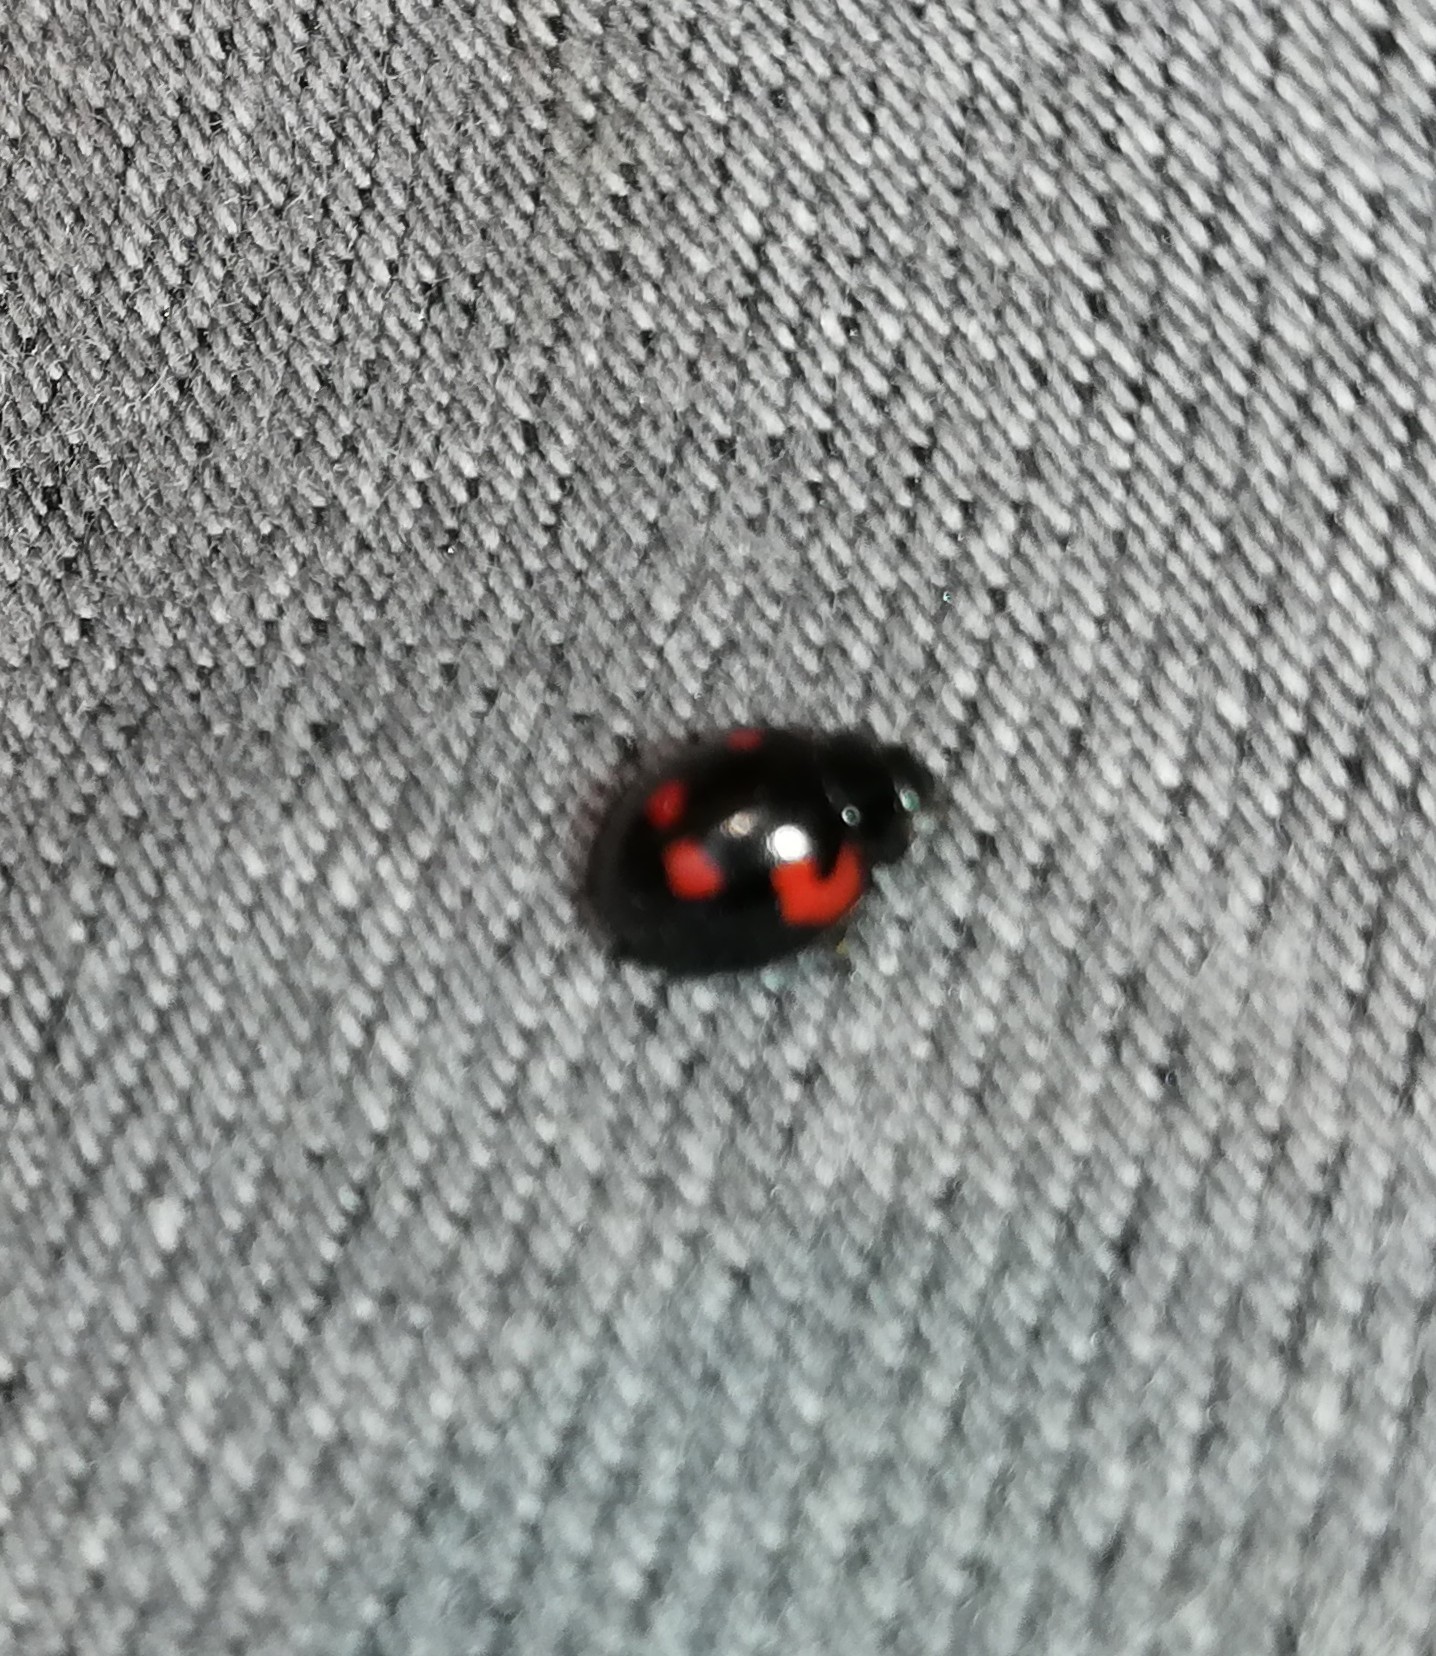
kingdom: Animalia
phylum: Arthropoda
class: Insecta
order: Coleoptera
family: Coccinellidae
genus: Brumus
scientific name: Brumus quadripustulatus
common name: Ladybird beetle
